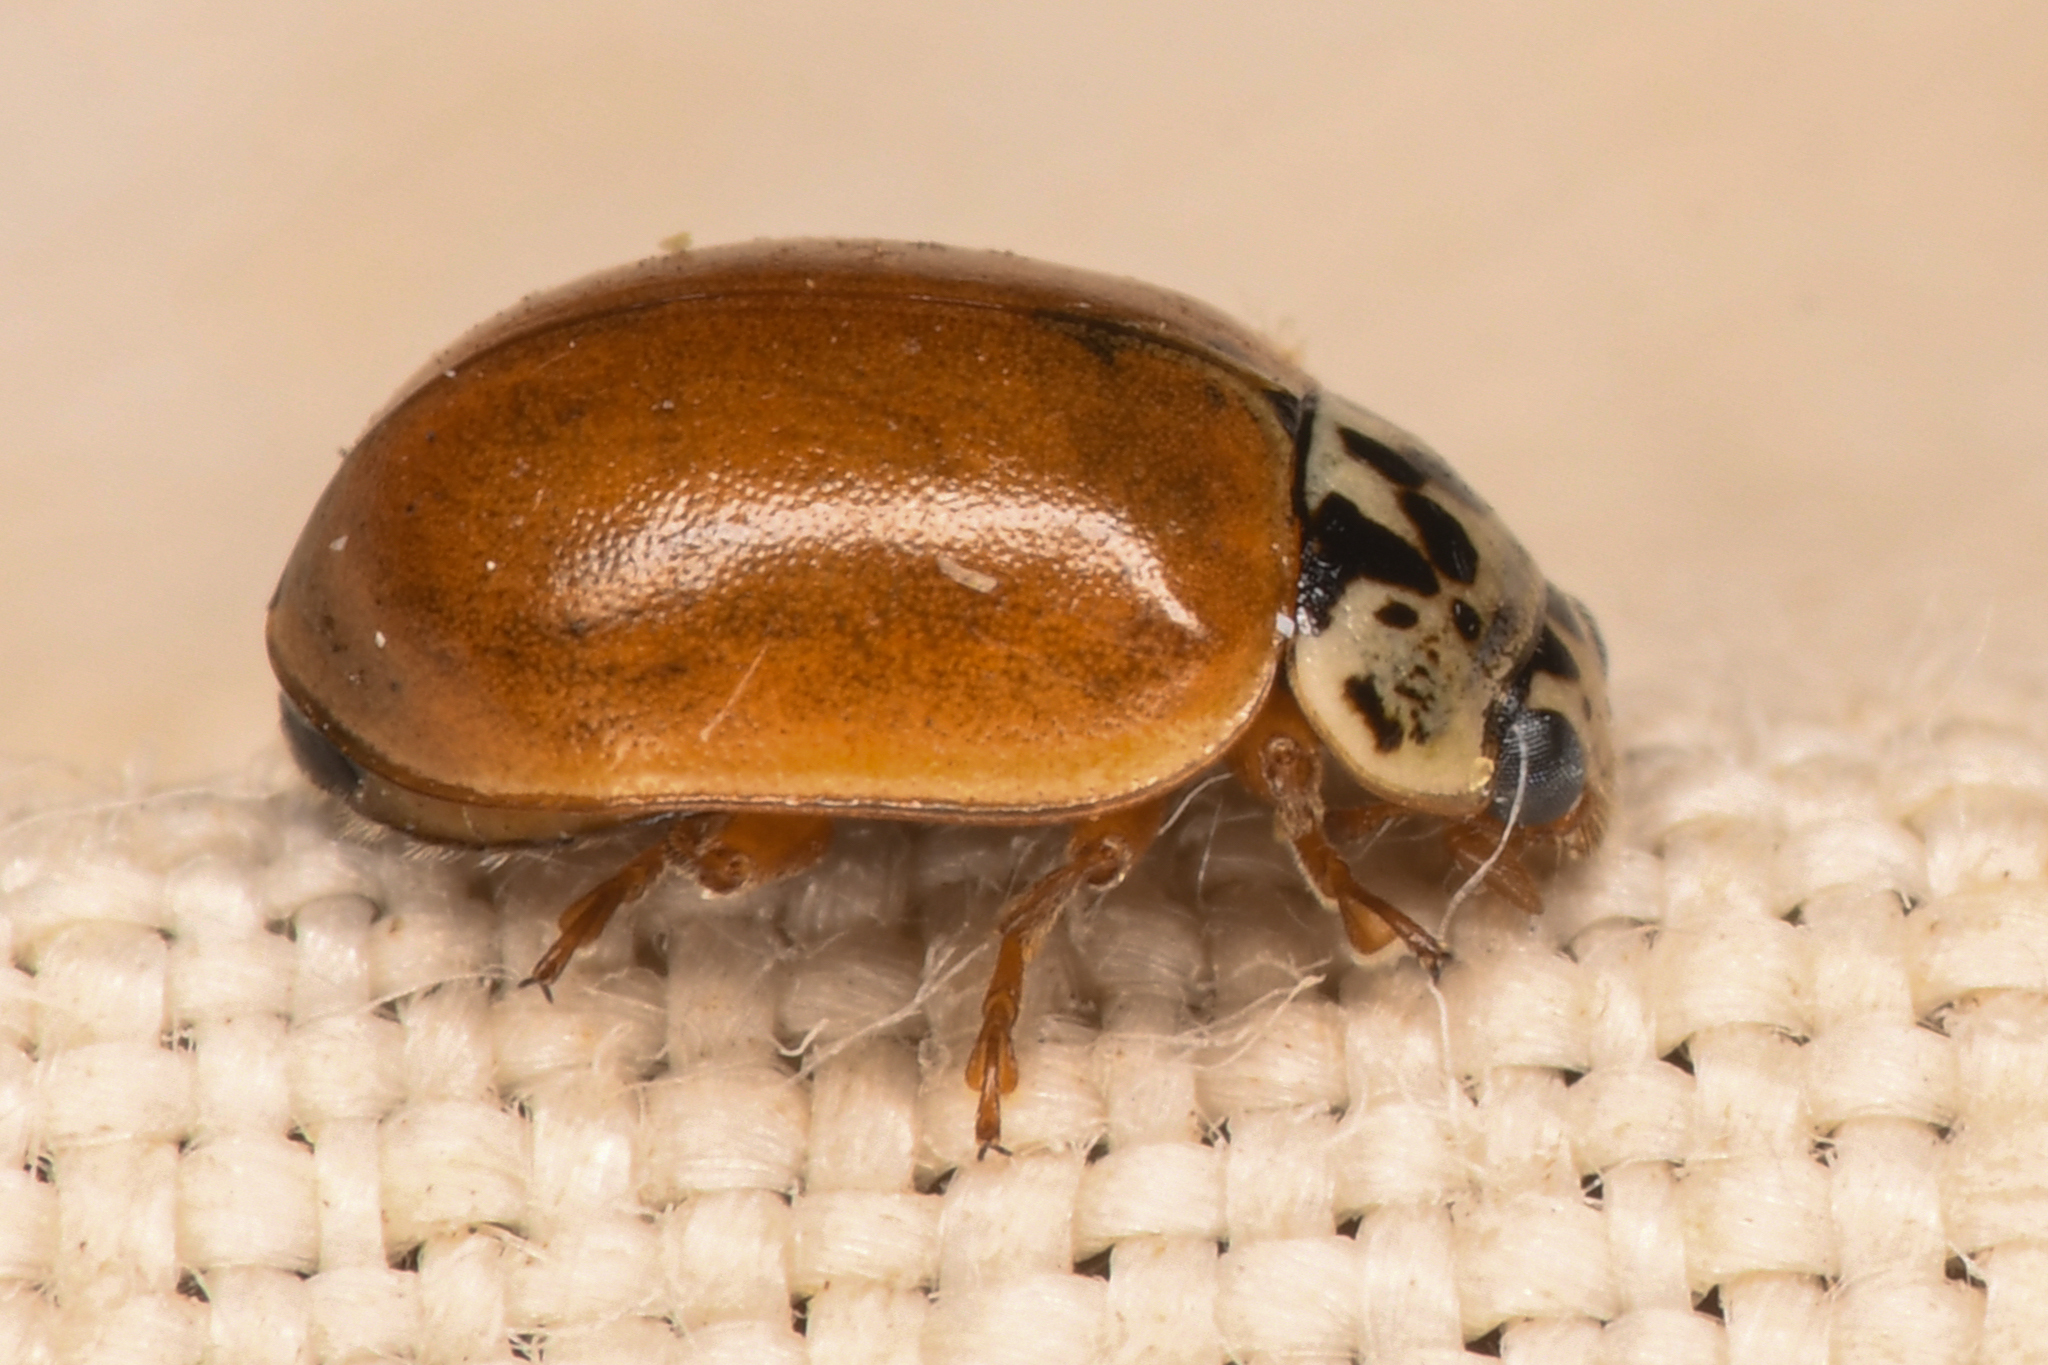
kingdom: Animalia
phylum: Arthropoda
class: Insecta
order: Coleoptera
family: Coccinellidae
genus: Mulsantina
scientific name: Mulsantina picta
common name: Painted ladybird
